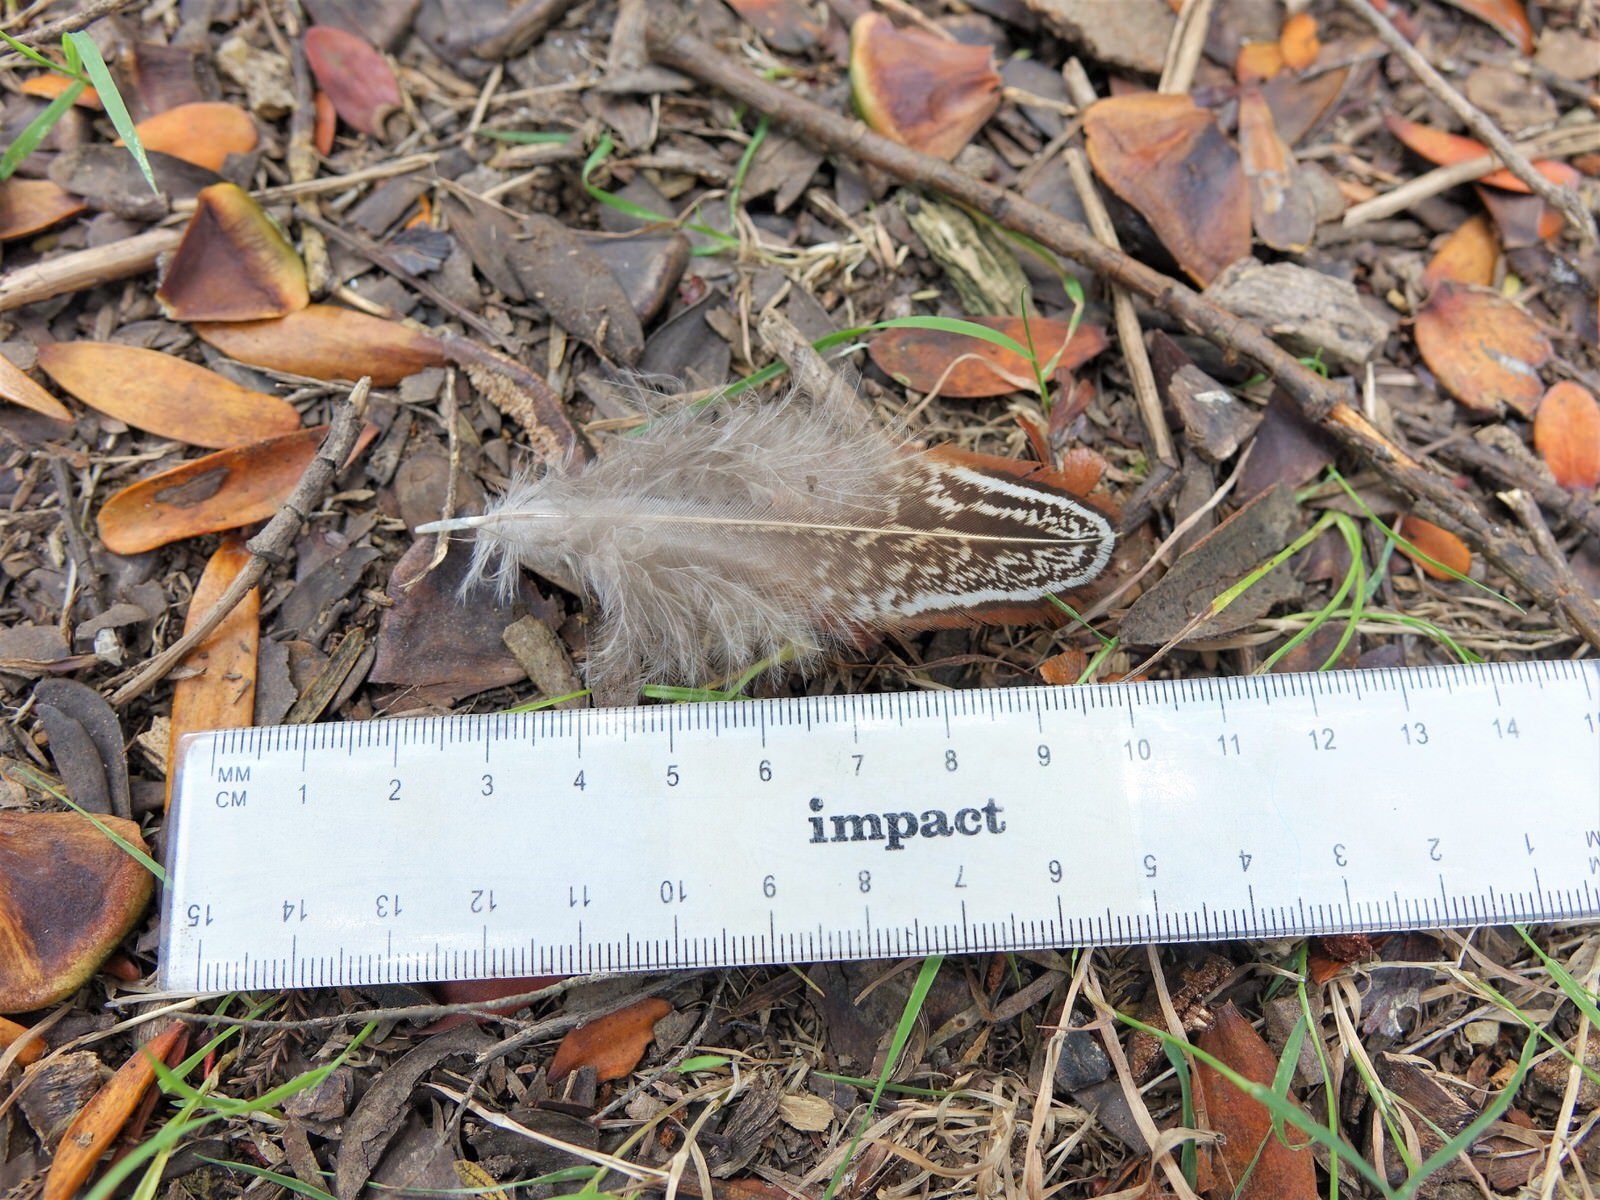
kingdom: Animalia
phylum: Chordata
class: Aves
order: Galliformes
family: Phasianidae
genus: Phasianus
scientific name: Phasianus colchicus
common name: Common pheasant
